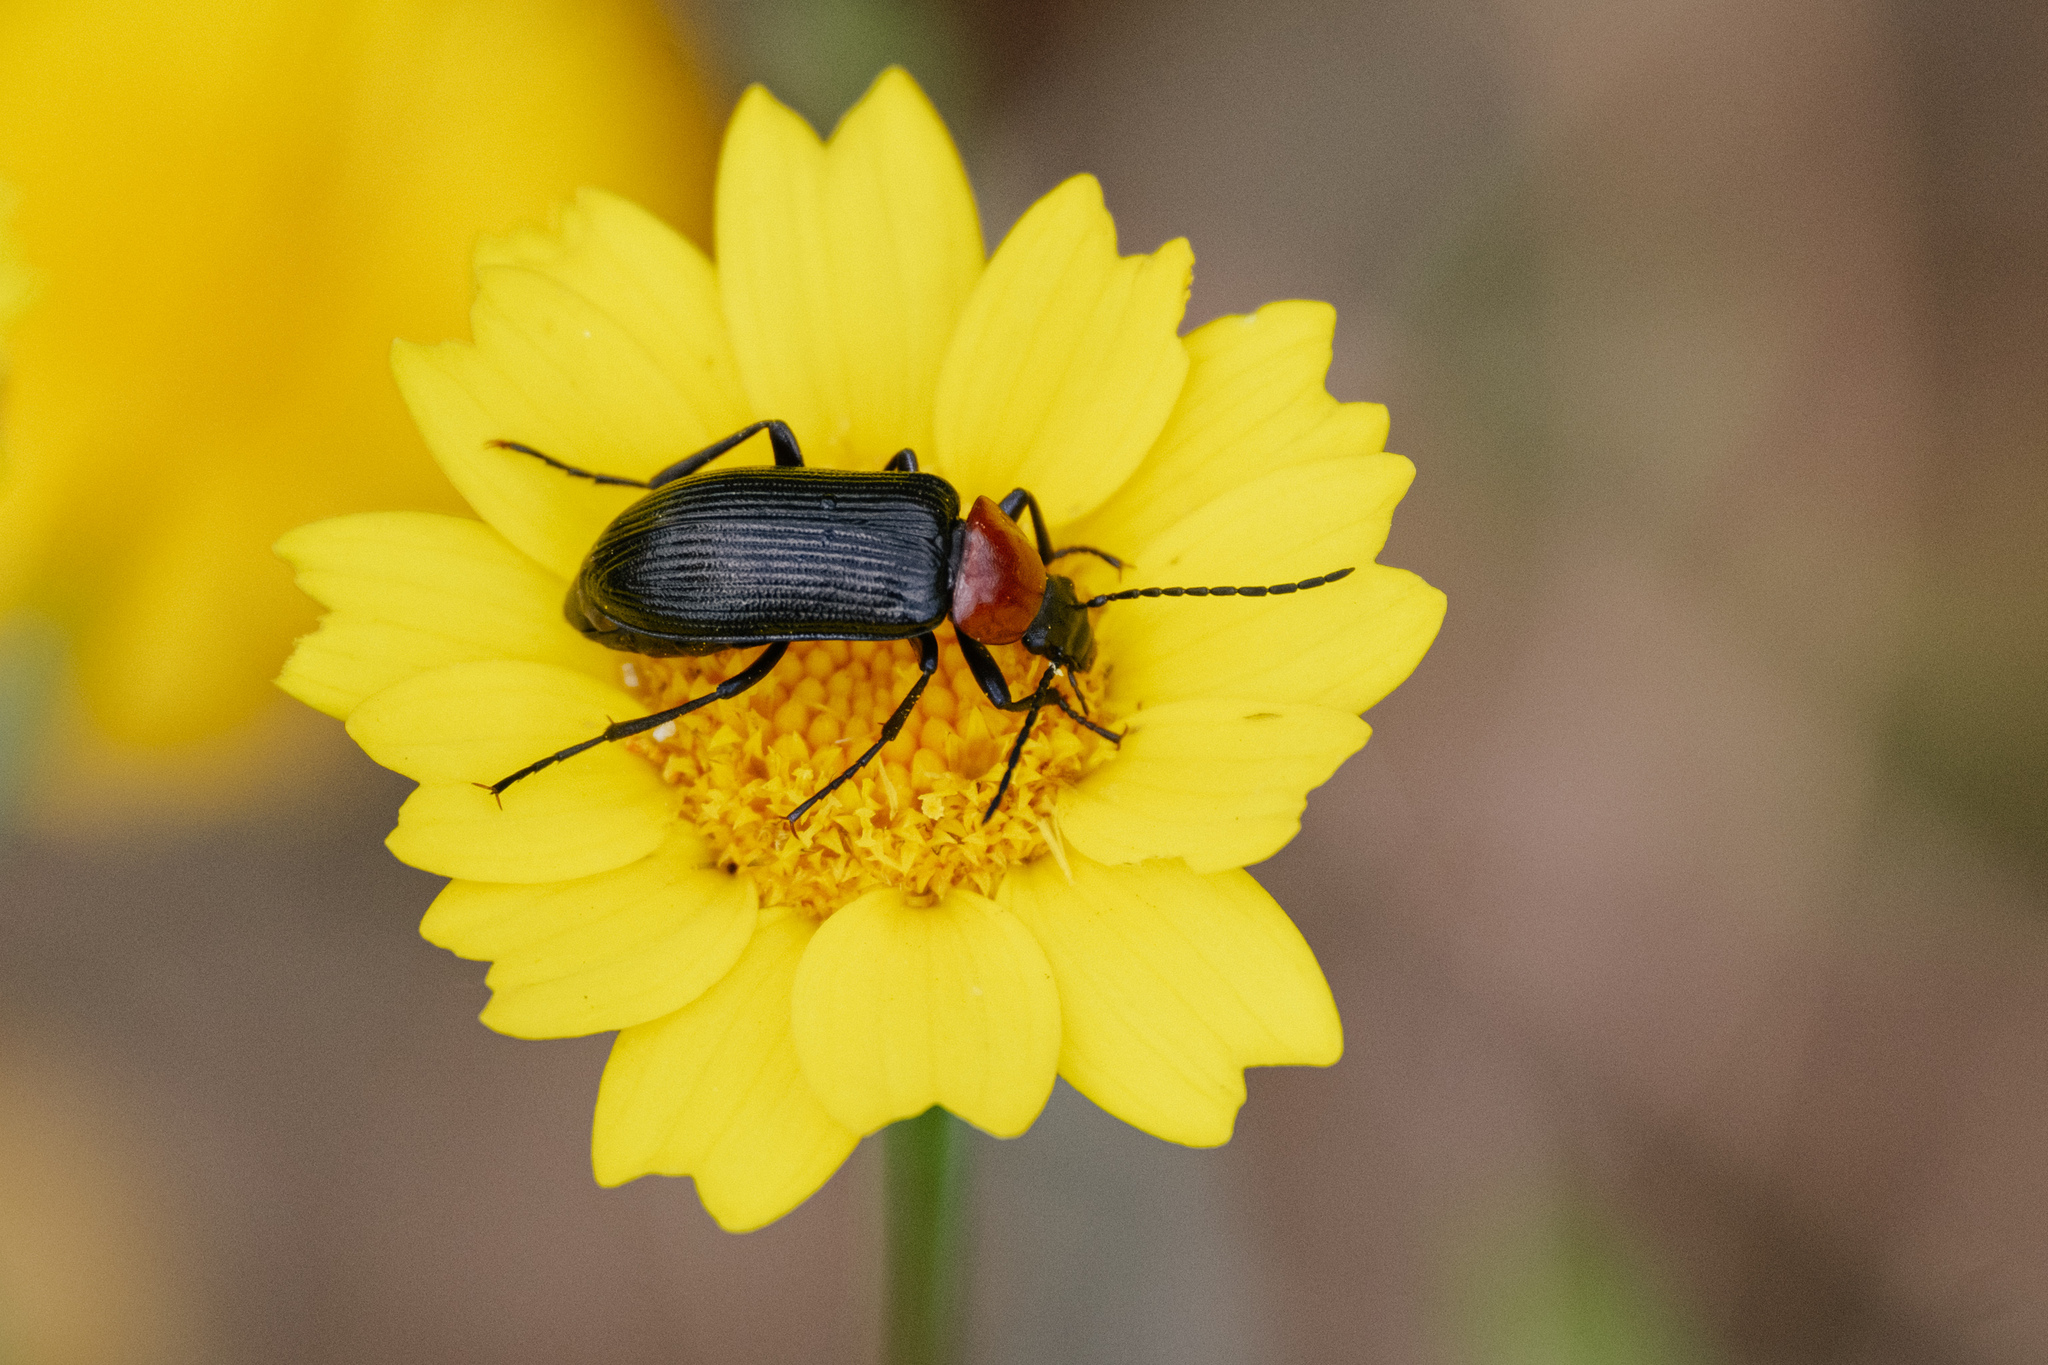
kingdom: Animalia
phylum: Arthropoda
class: Insecta
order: Coleoptera
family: Tenebrionidae
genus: Heliotaurus
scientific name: Heliotaurus ruficollis
